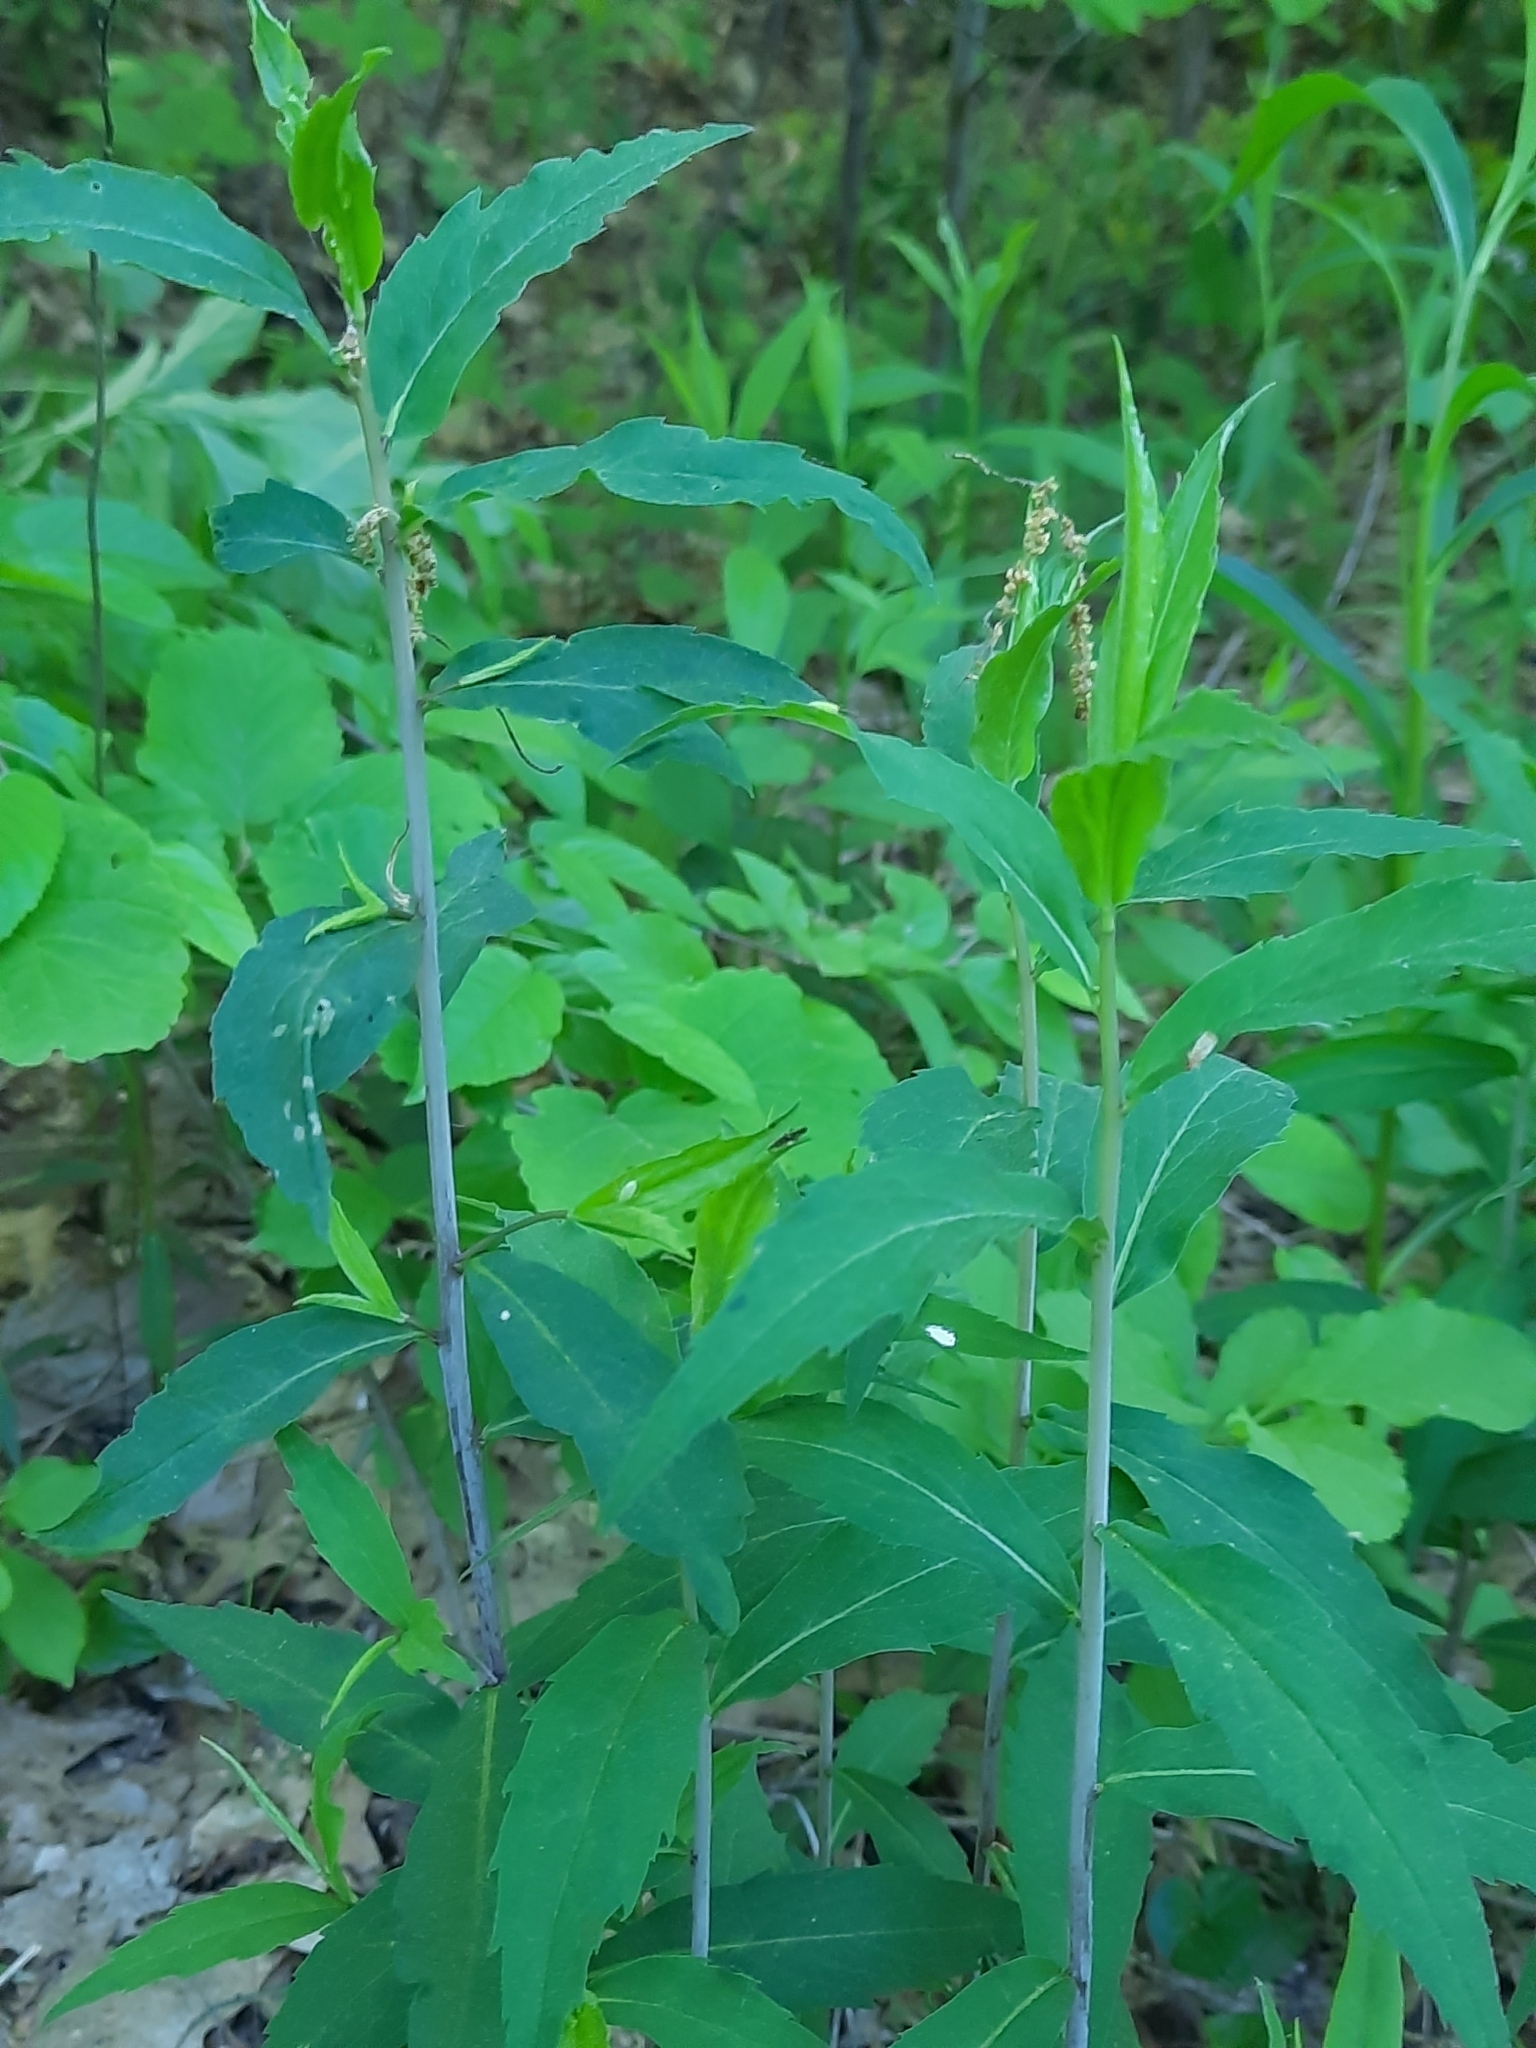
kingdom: Plantae
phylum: Tracheophyta
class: Magnoliopsida
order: Asterales
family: Asteraceae
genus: Solidago
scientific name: Solidago caesia
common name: Woodland goldenrod
